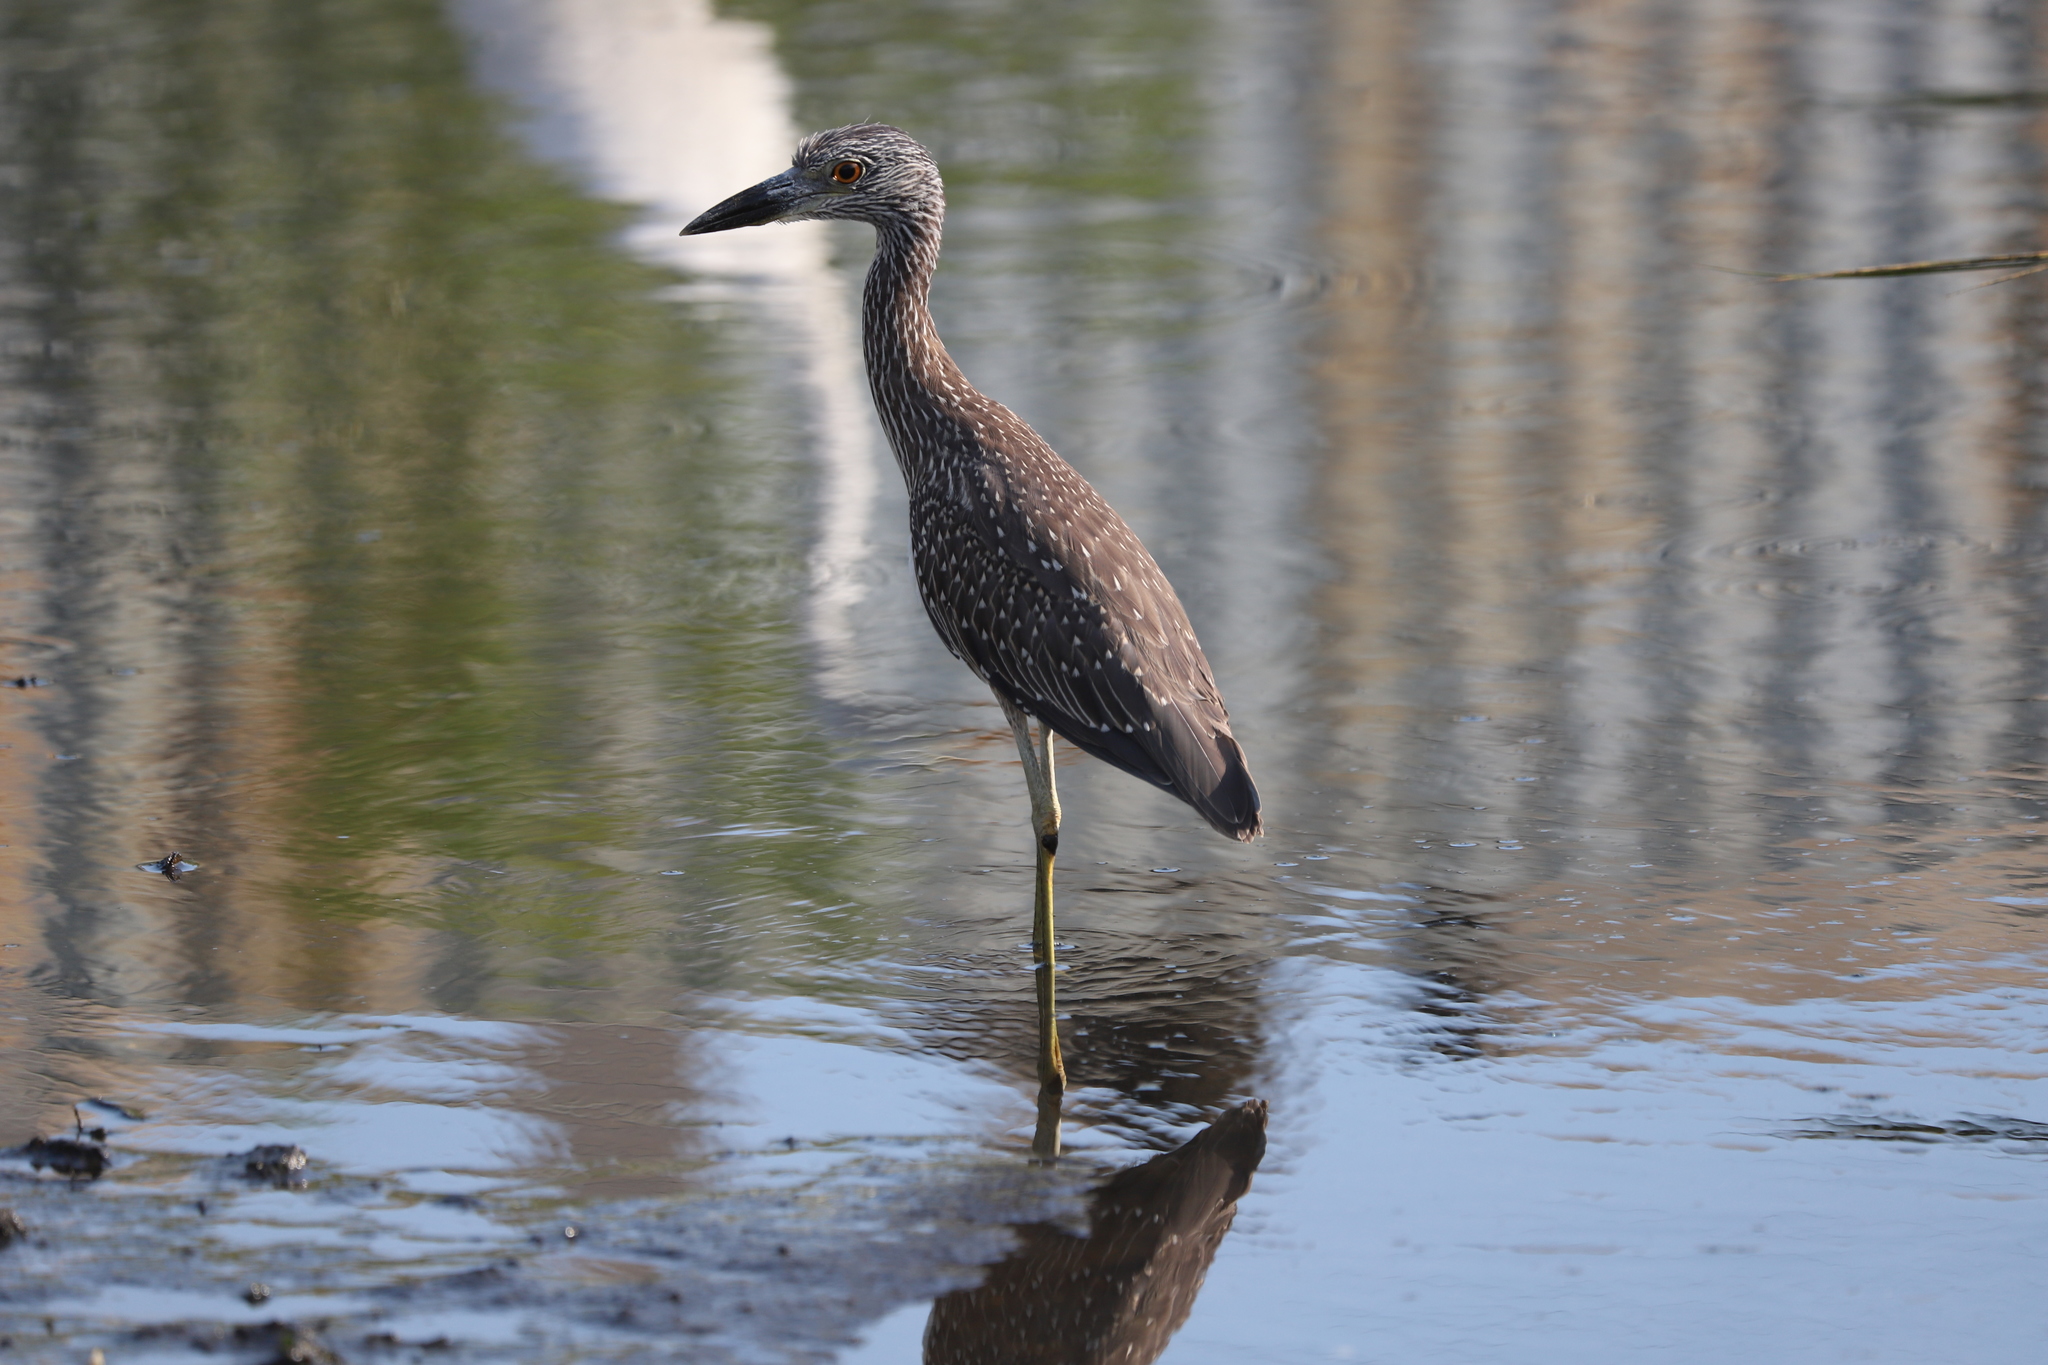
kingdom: Animalia
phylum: Chordata
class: Aves
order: Pelecaniformes
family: Ardeidae
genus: Nyctanassa
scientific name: Nyctanassa violacea
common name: Yellow-crowned night heron
